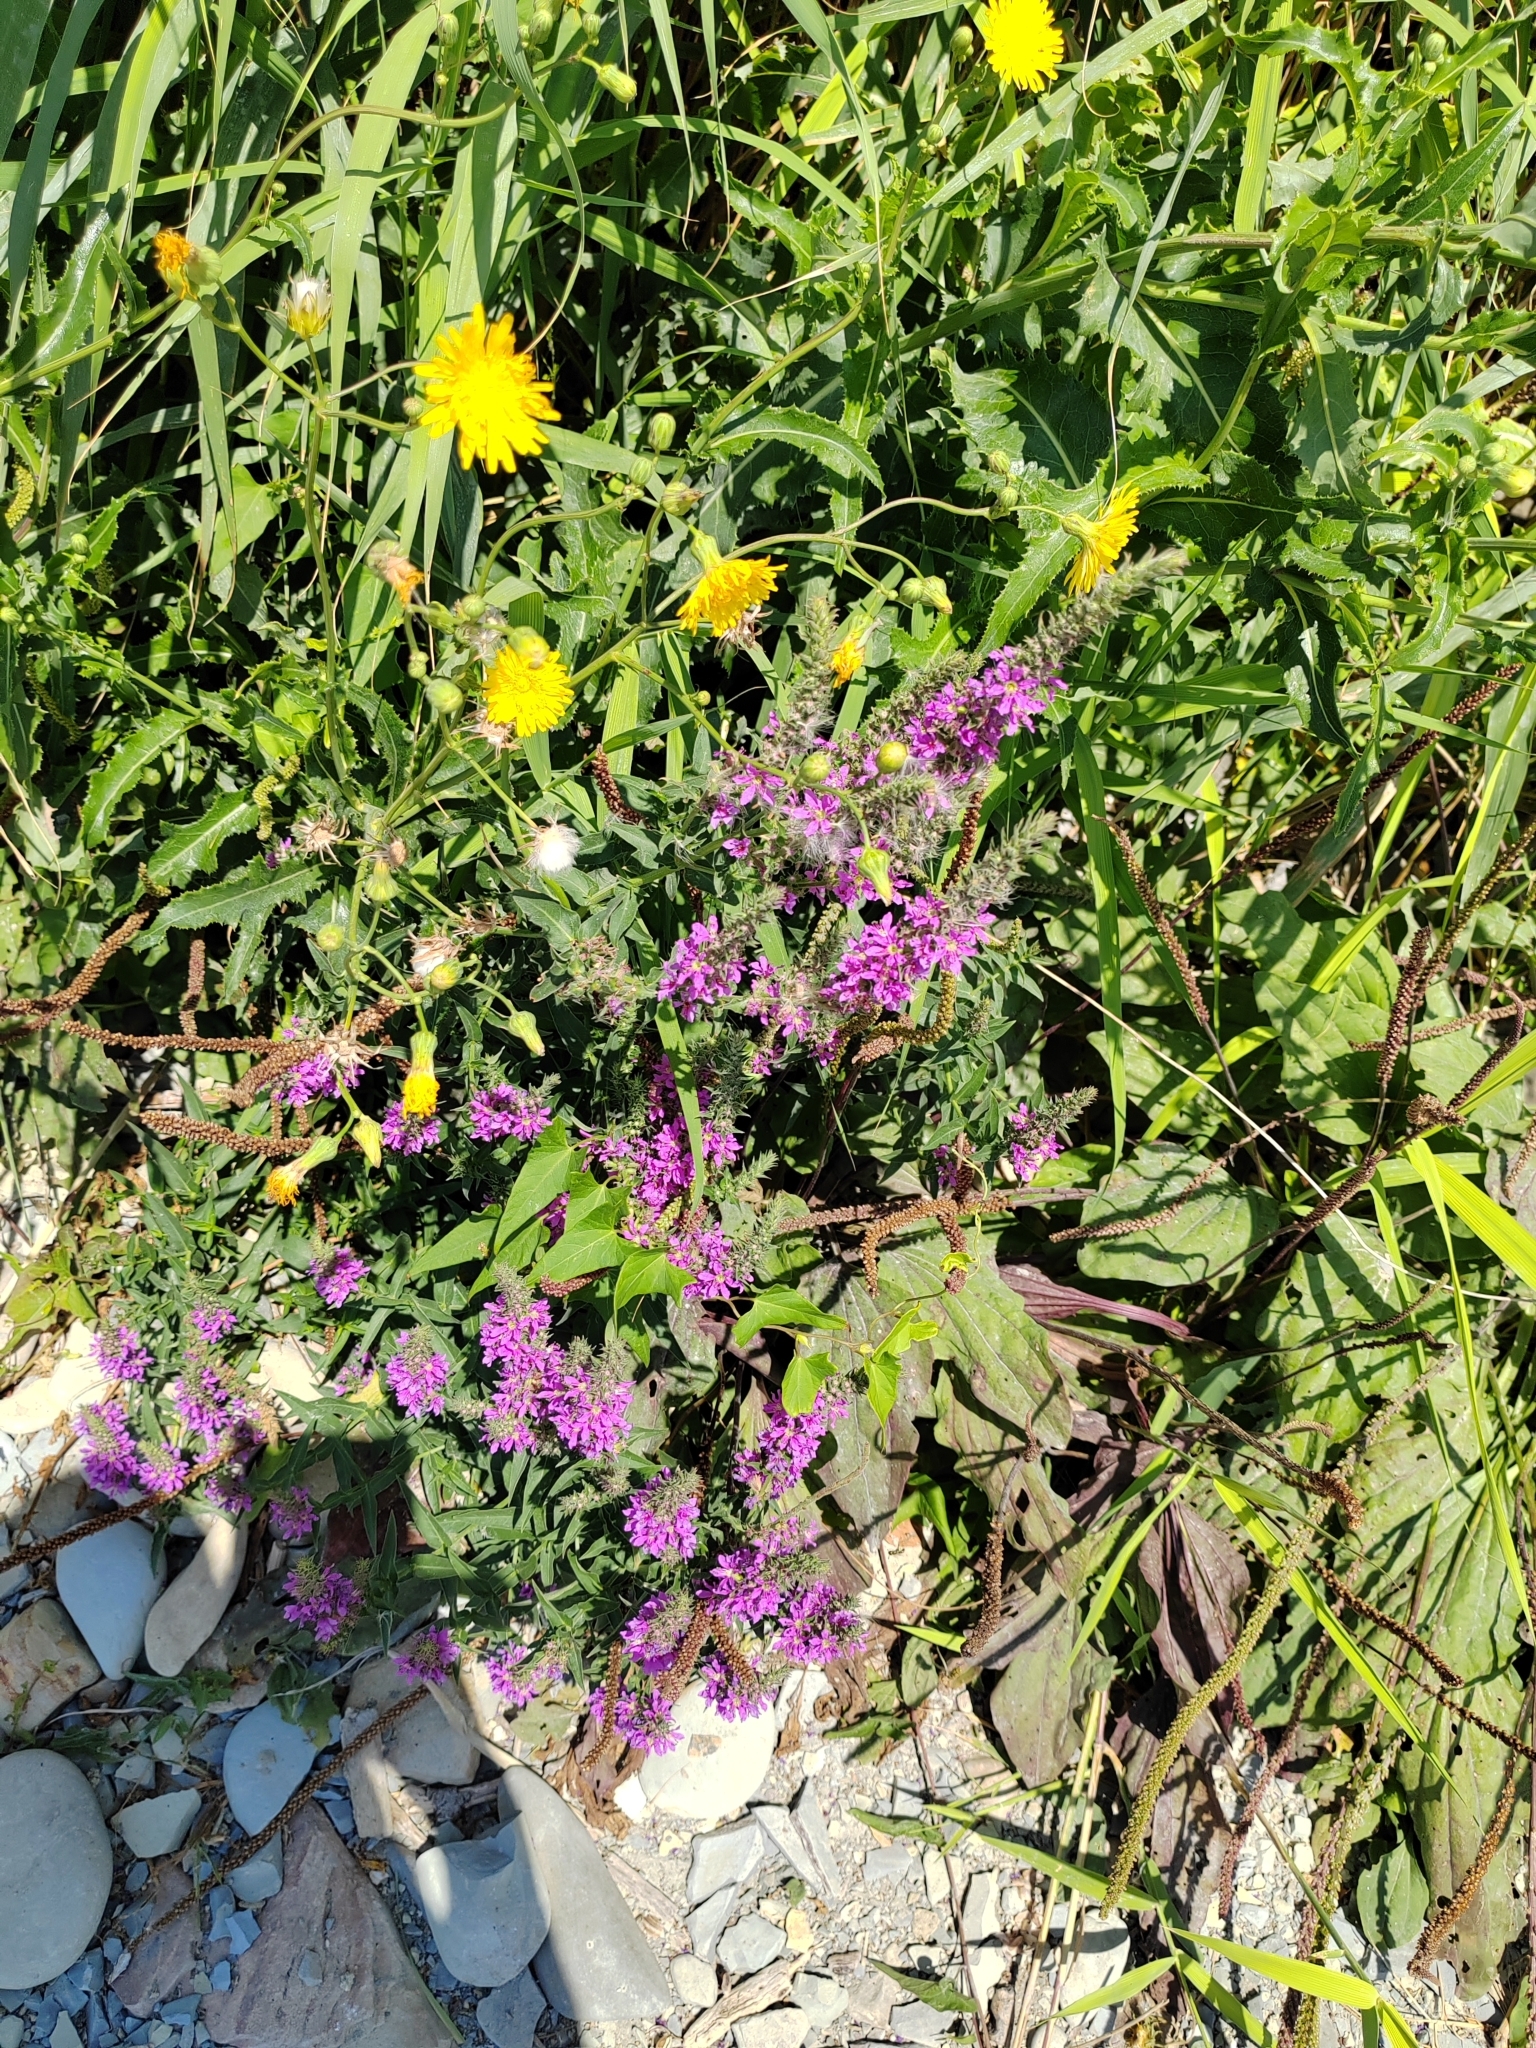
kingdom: Plantae
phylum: Tracheophyta
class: Magnoliopsida
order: Myrtales
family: Lythraceae
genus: Lythrum
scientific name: Lythrum salicaria
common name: Purple loosestrife
